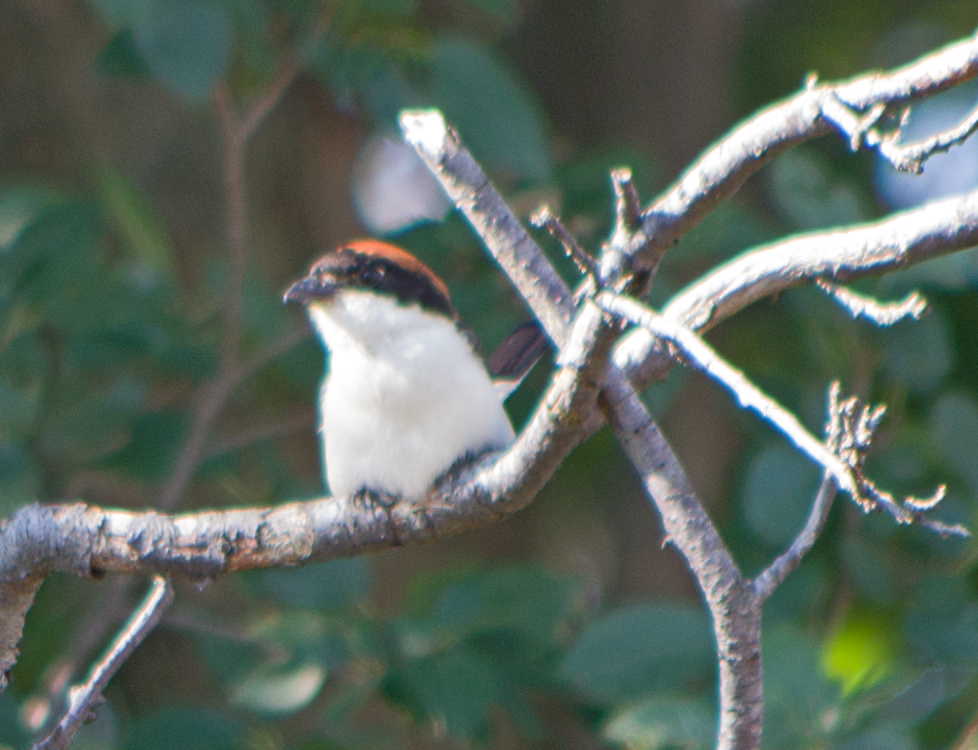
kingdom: Animalia
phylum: Chordata
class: Aves
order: Passeriformes
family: Laniidae
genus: Lanius
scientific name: Lanius senator
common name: Woodchat shrike
